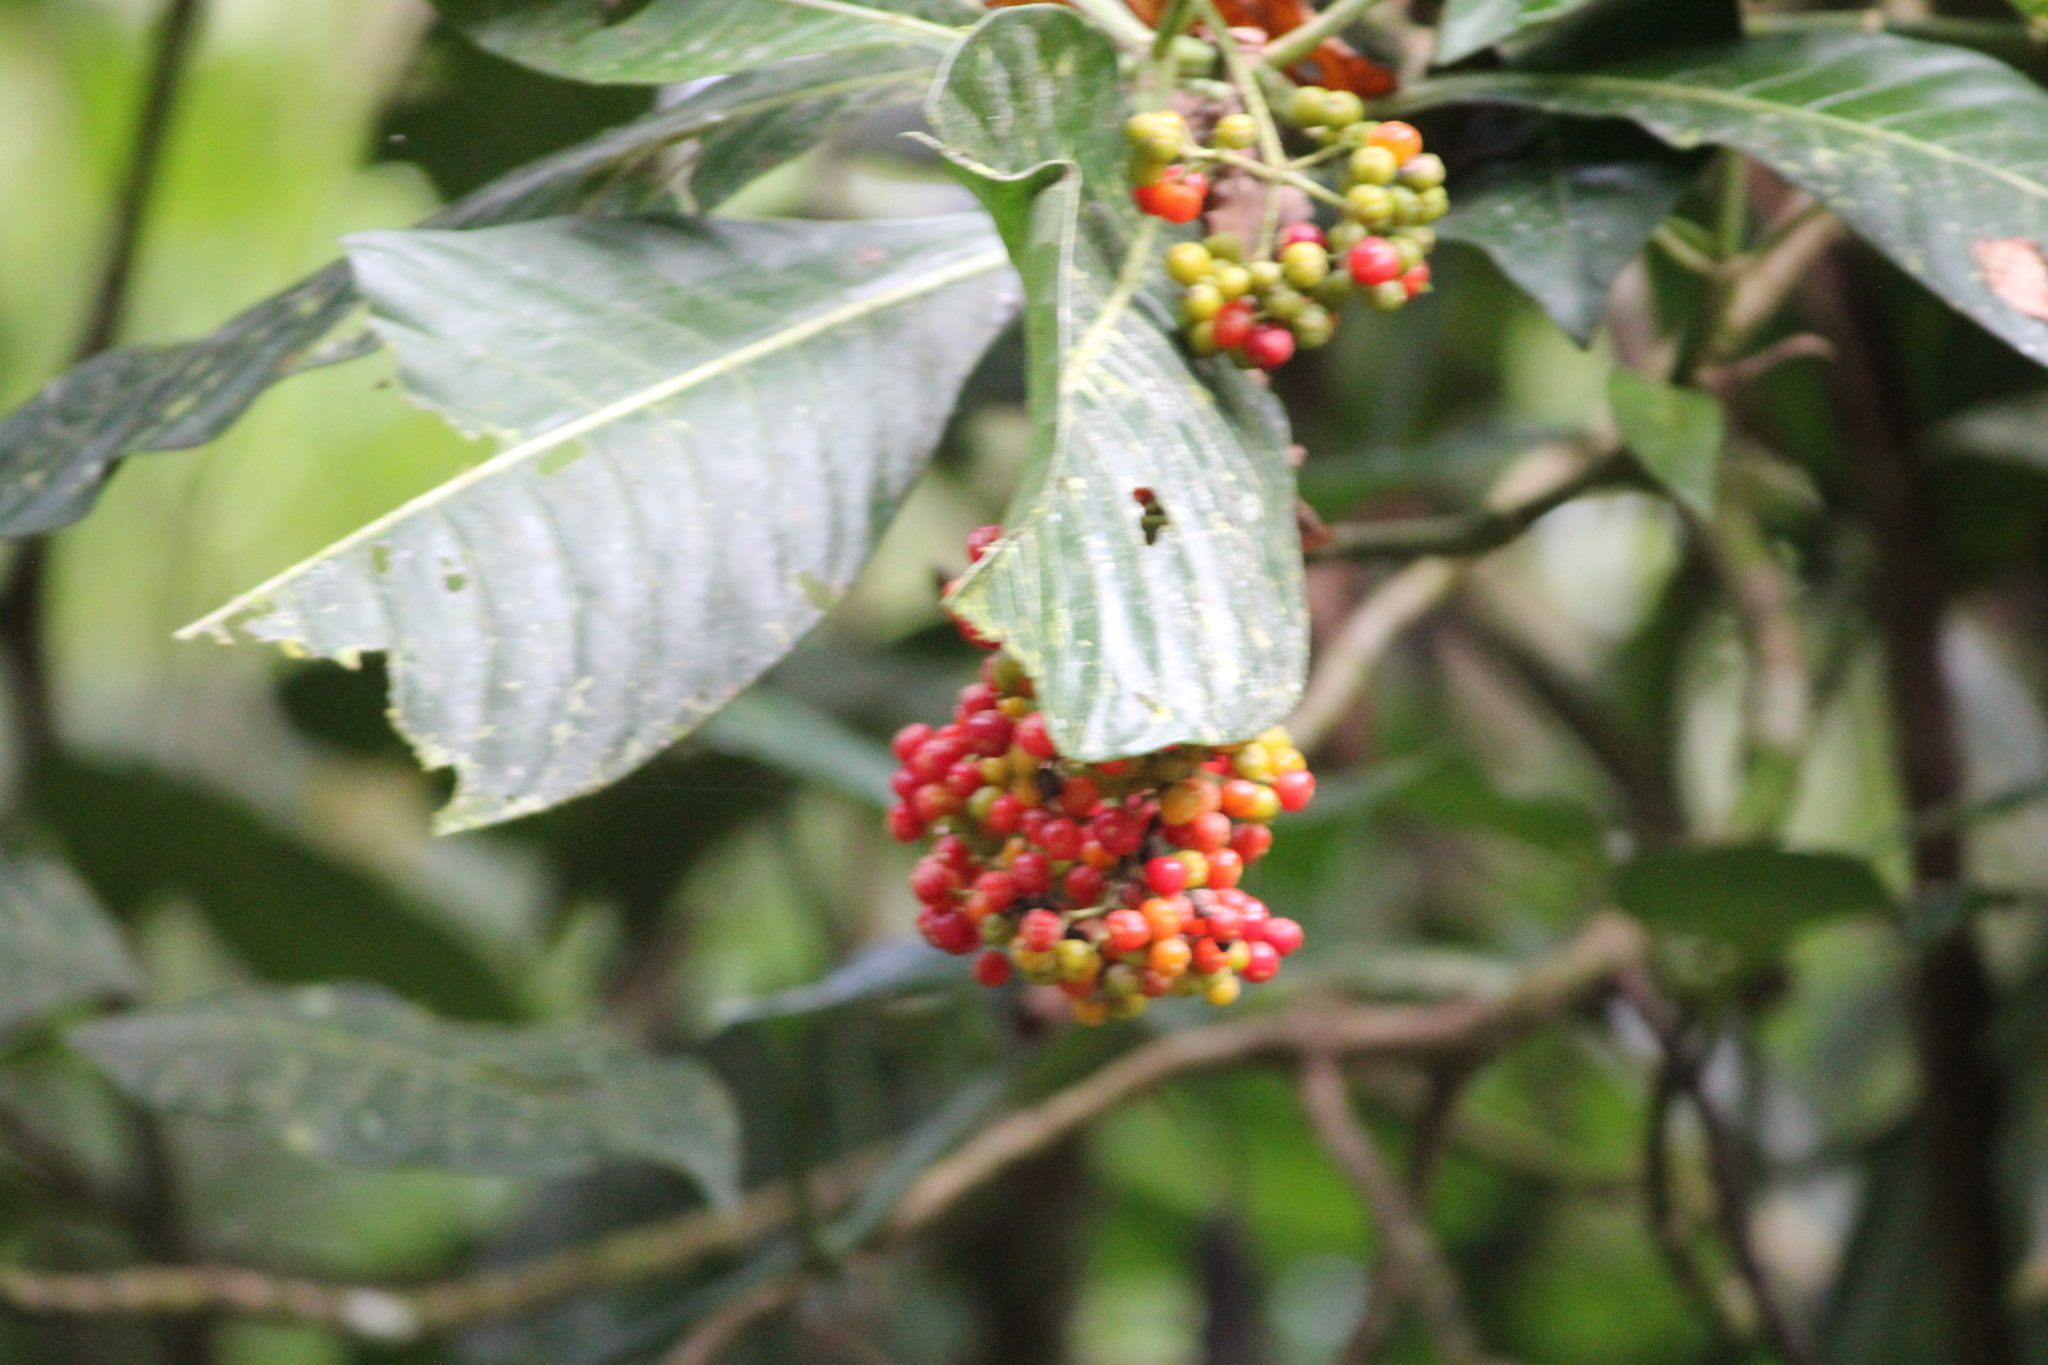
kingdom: Plantae
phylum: Tracheophyta
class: Magnoliopsida
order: Gentianales
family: Rubiaceae
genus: Psychotria
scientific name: Psychotria grandis
